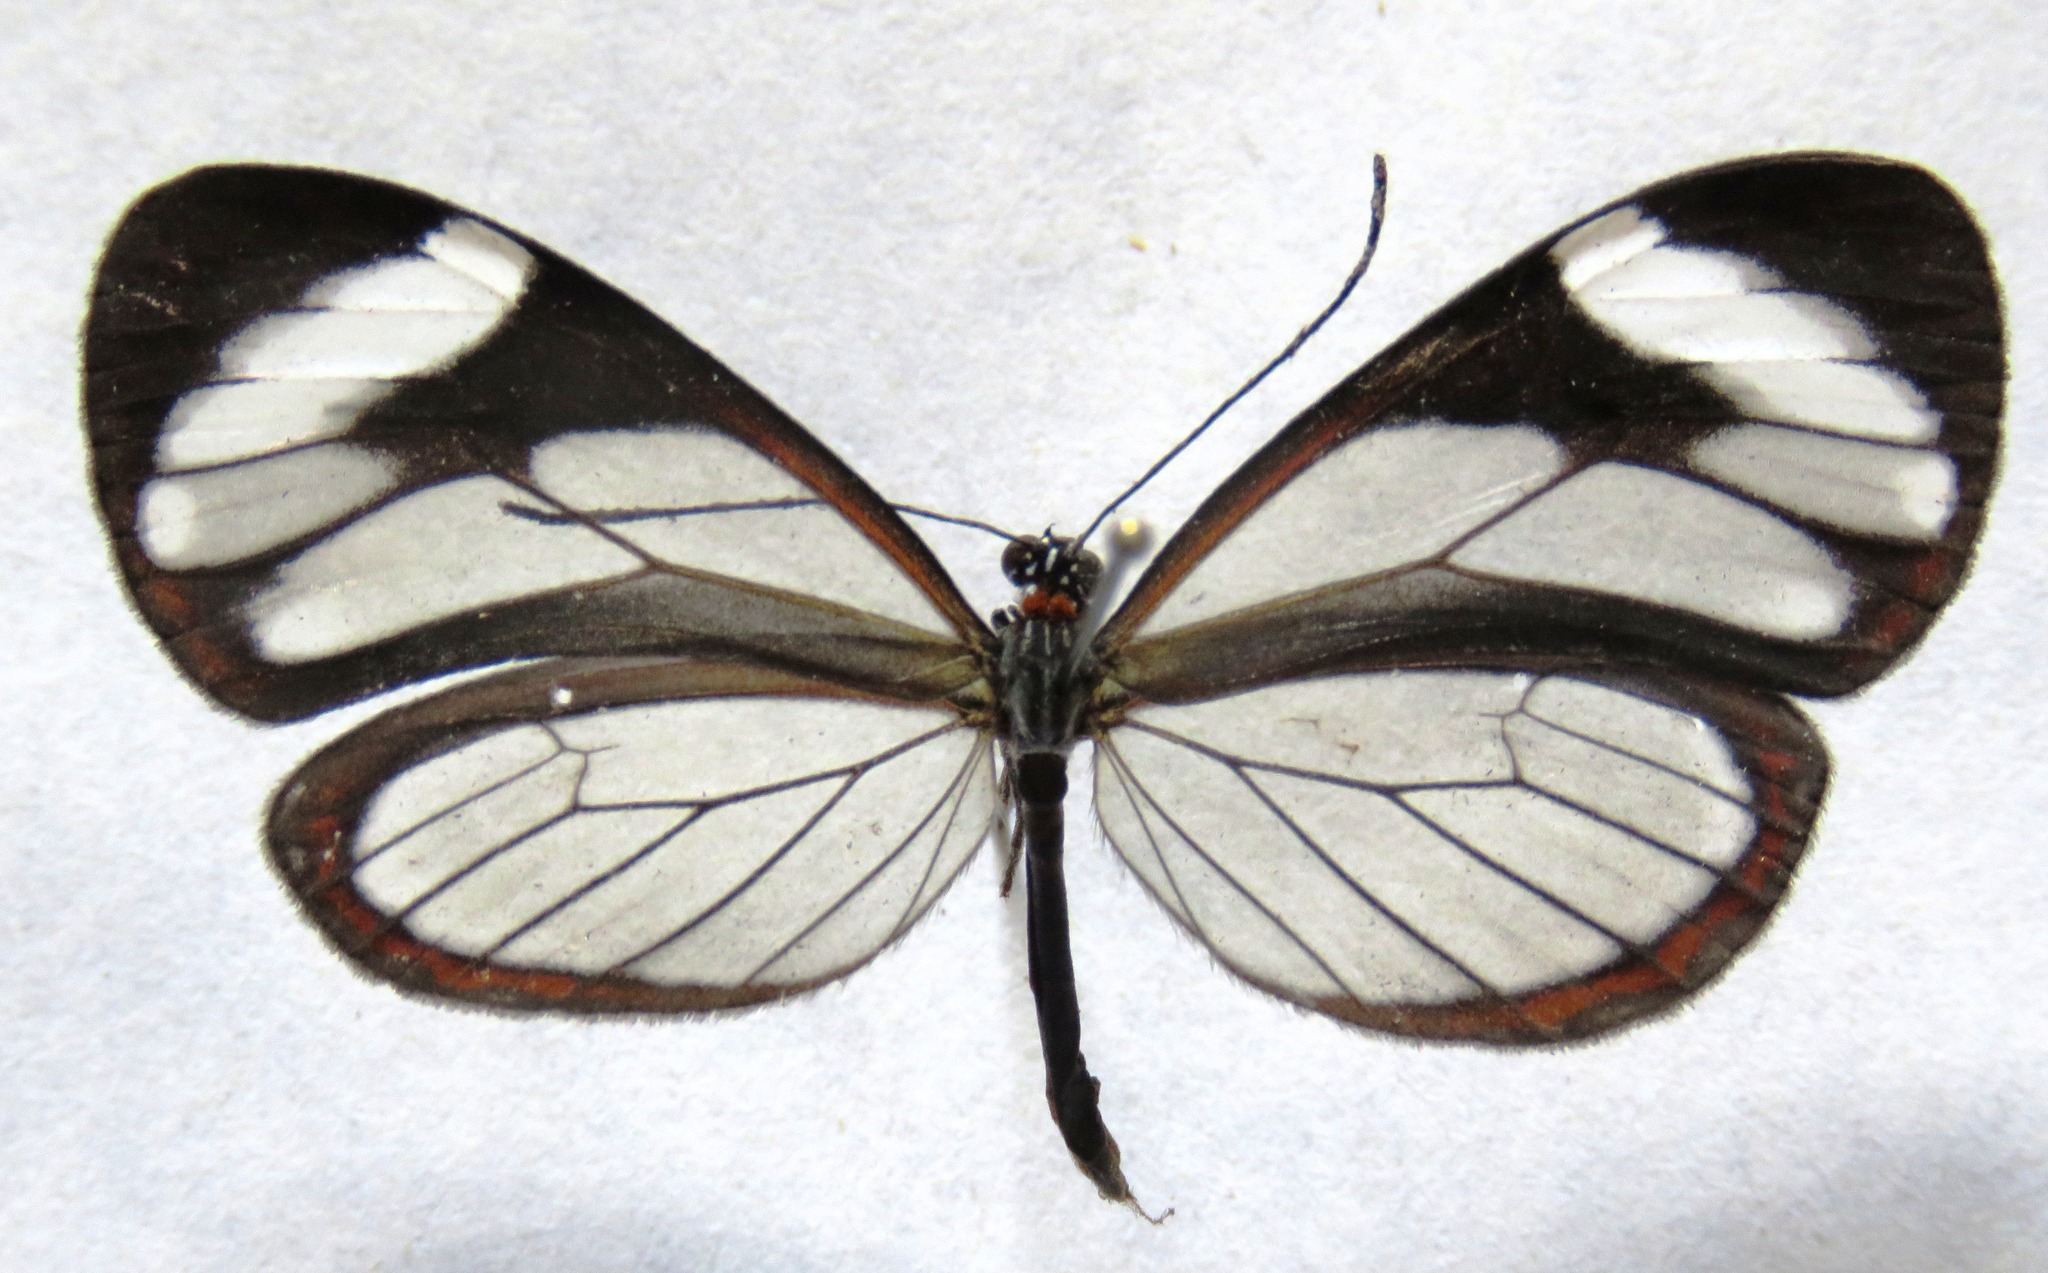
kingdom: Animalia
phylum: Arthropoda
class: Insecta
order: Lepidoptera
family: Nymphalidae
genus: Ithomia
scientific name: Ithomia patilla
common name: Patilla clearwing
